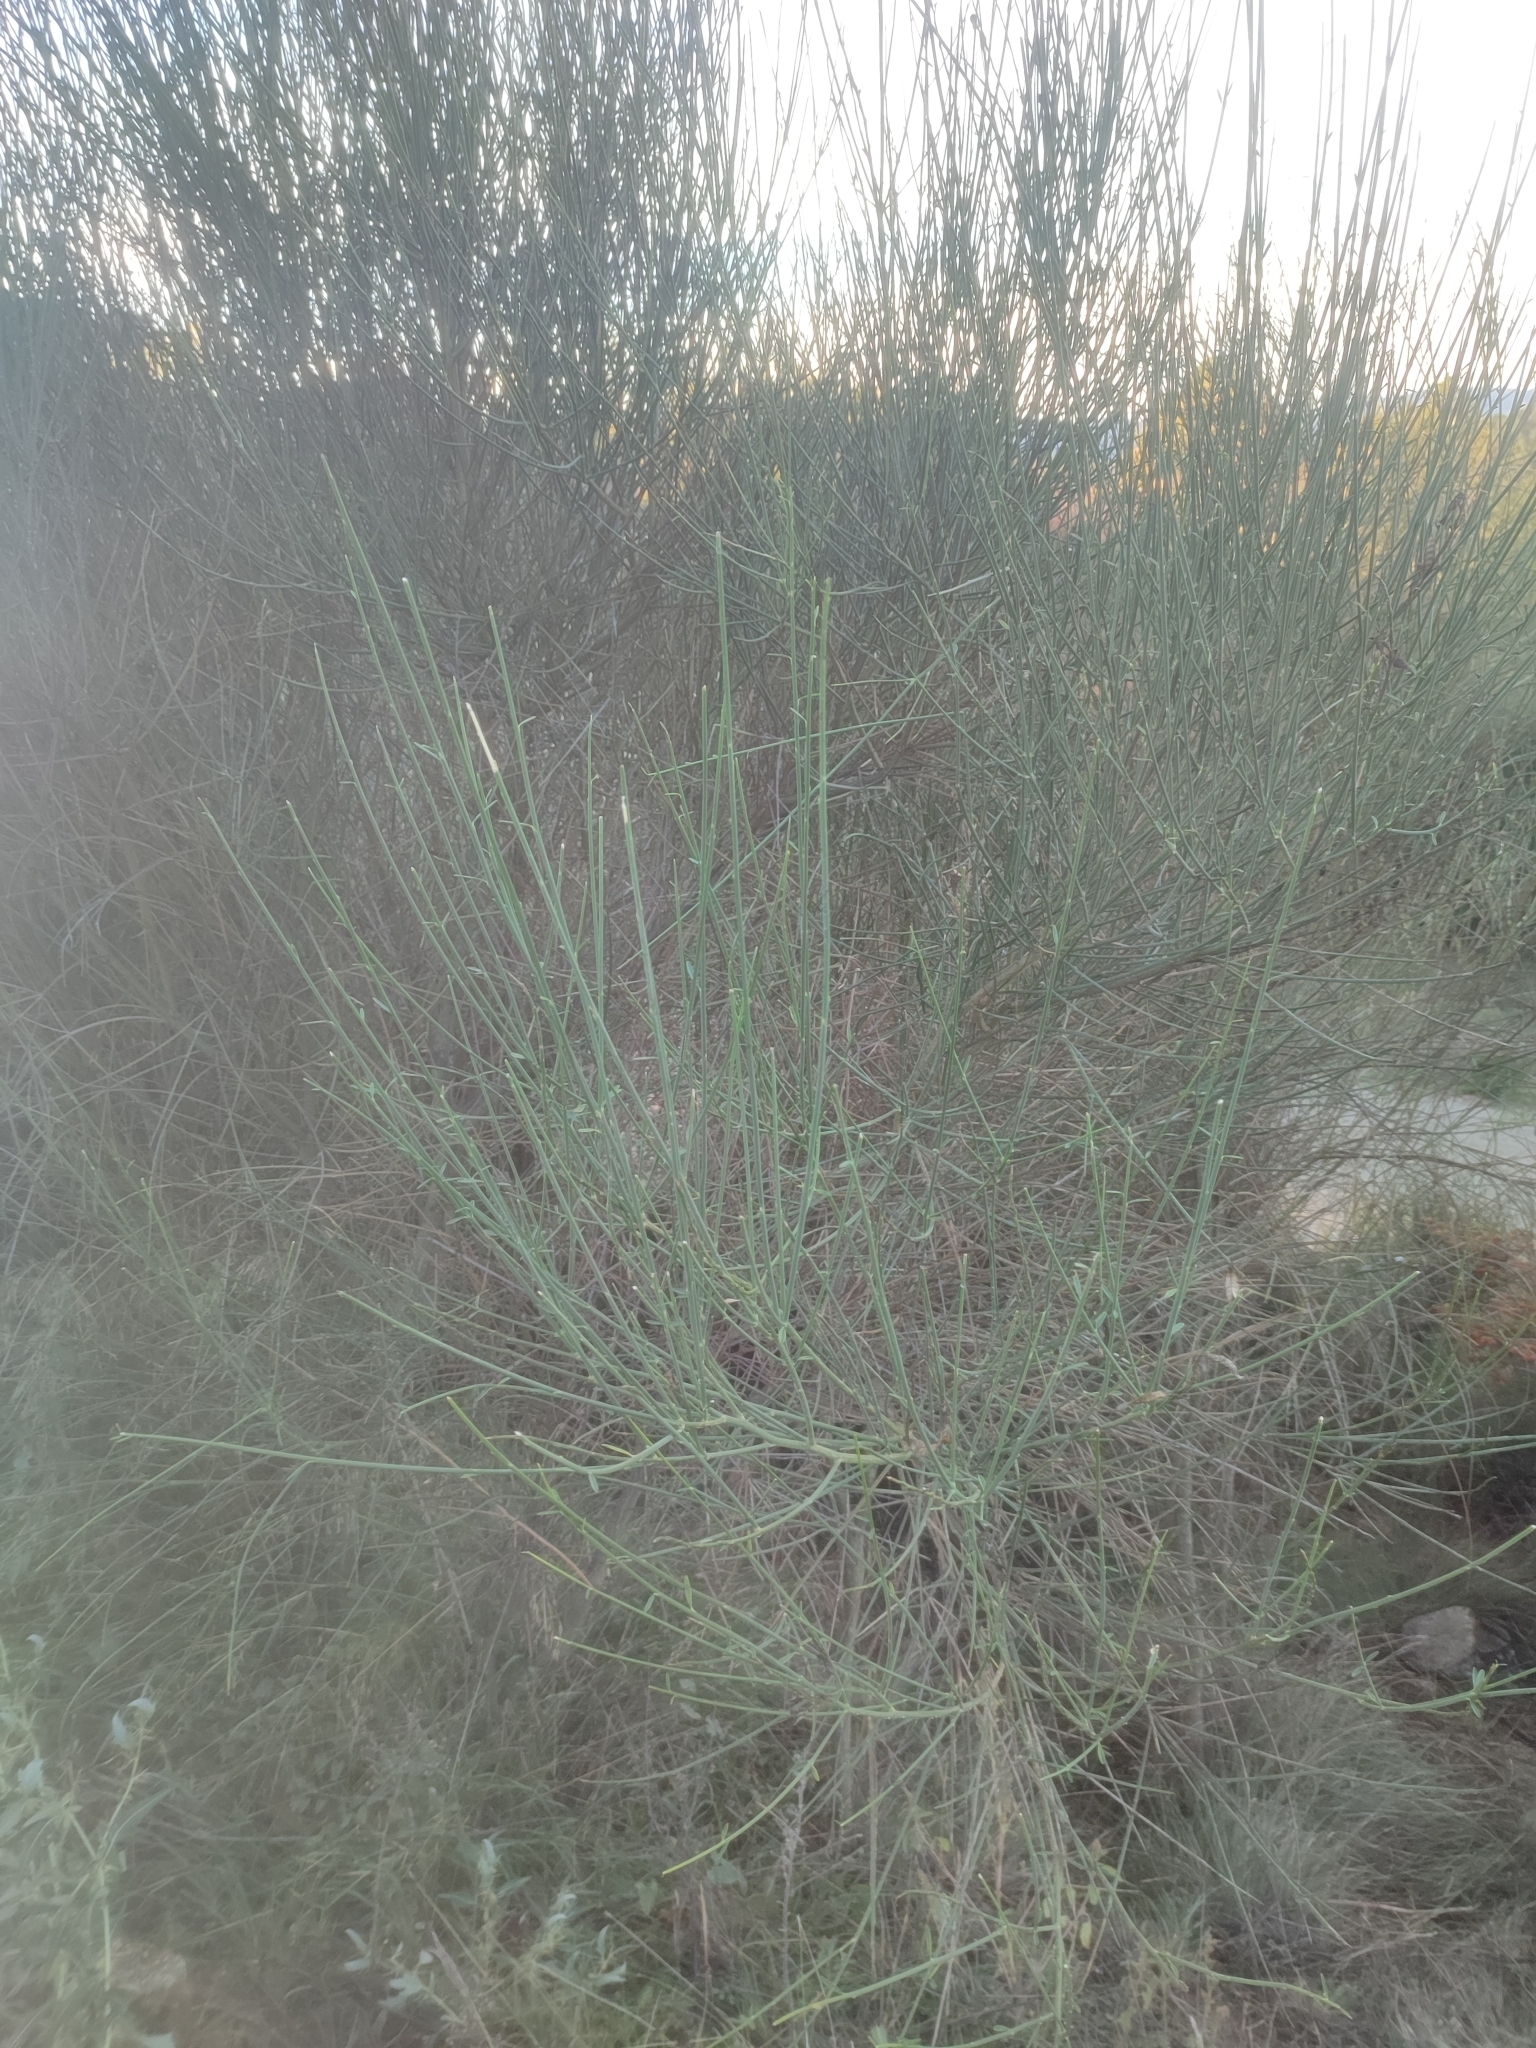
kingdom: Plantae
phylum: Tracheophyta
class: Magnoliopsida
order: Fabales
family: Fabaceae
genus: Spartium
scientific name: Spartium junceum
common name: Spanish broom
